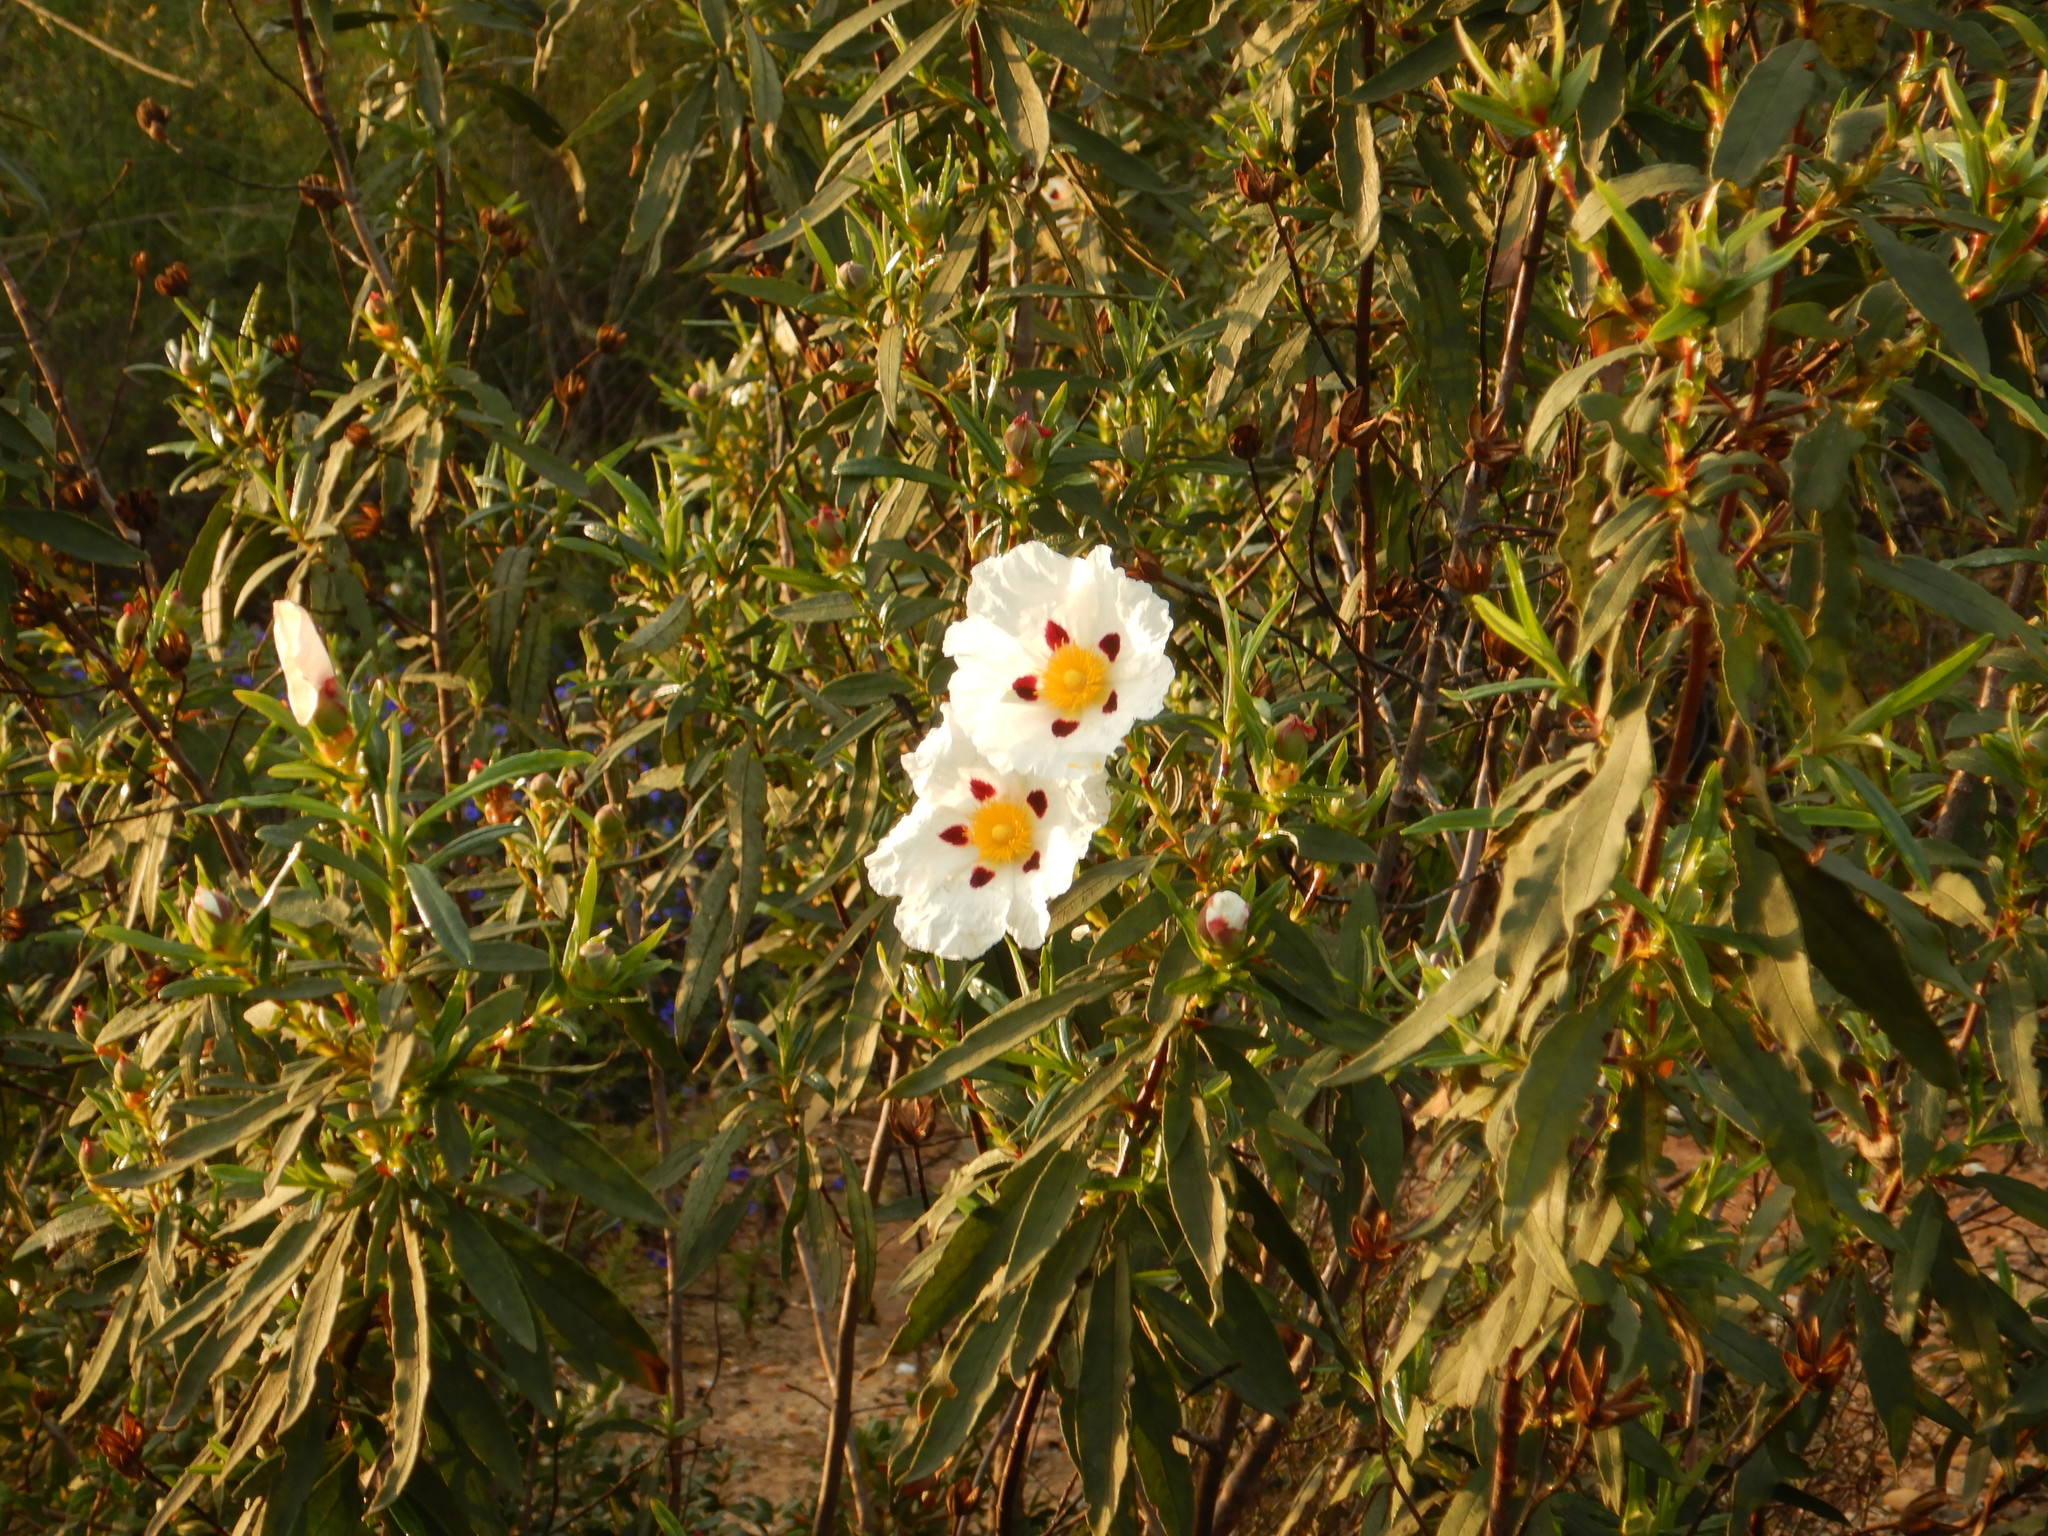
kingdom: Plantae
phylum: Tracheophyta
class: Magnoliopsida
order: Malvales
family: Cistaceae
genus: Cistus
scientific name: Cistus ladanifer
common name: Common gum cistus
